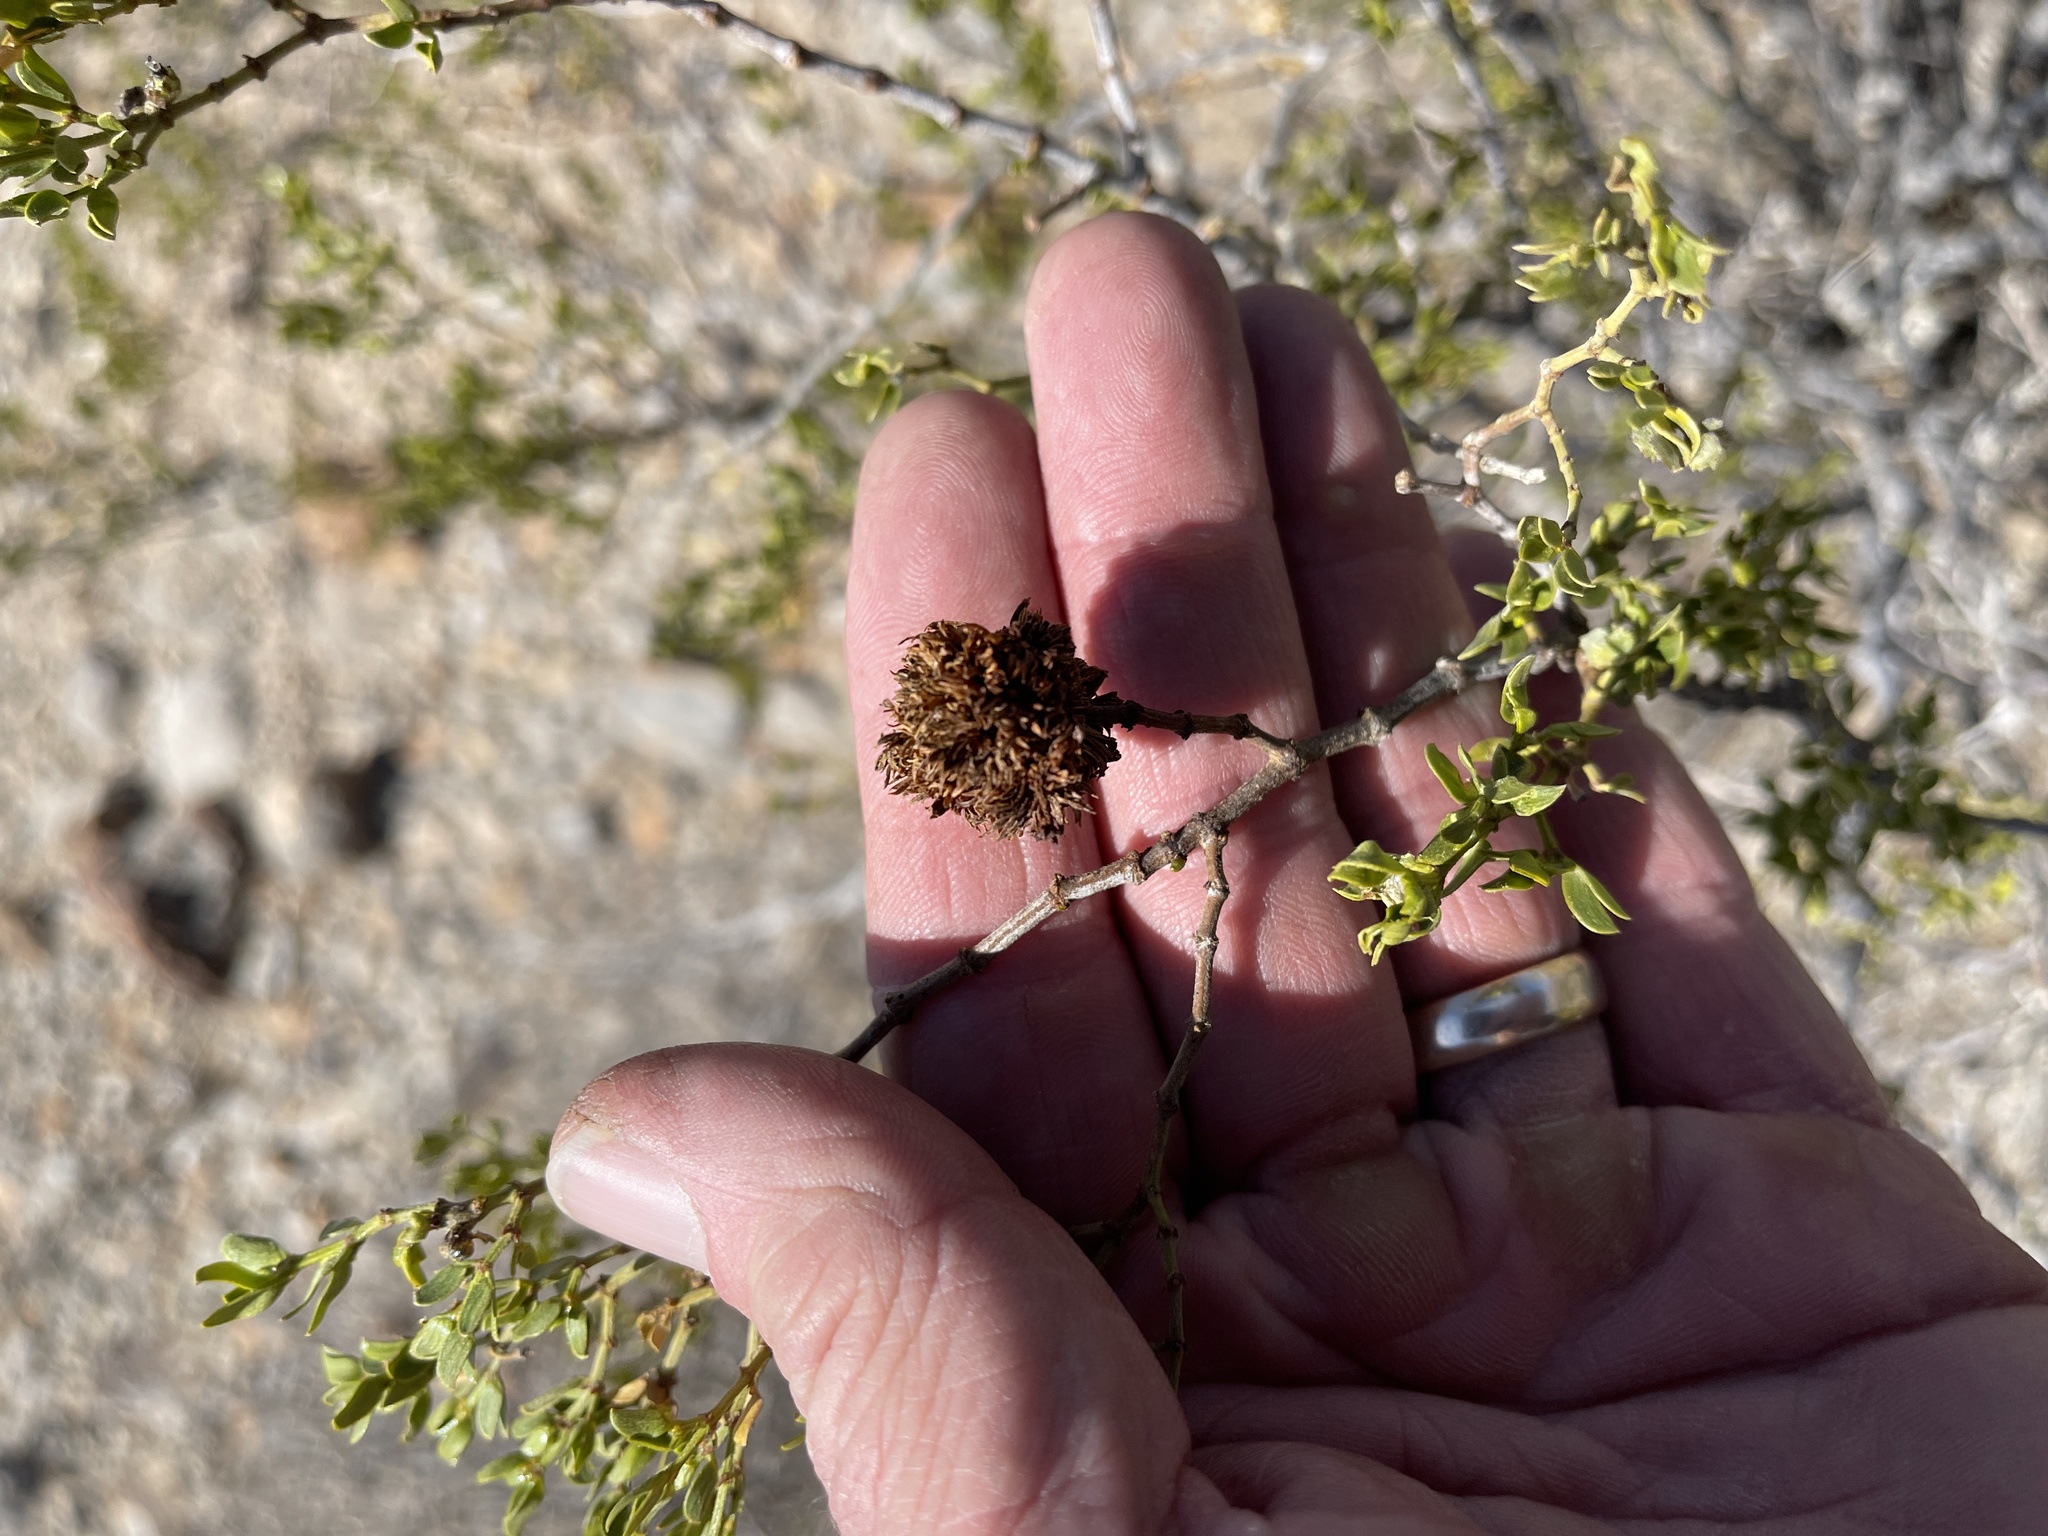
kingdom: Animalia
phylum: Arthropoda
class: Insecta
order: Diptera
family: Cecidomyiidae
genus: Asphondylia
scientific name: Asphondylia auripila
